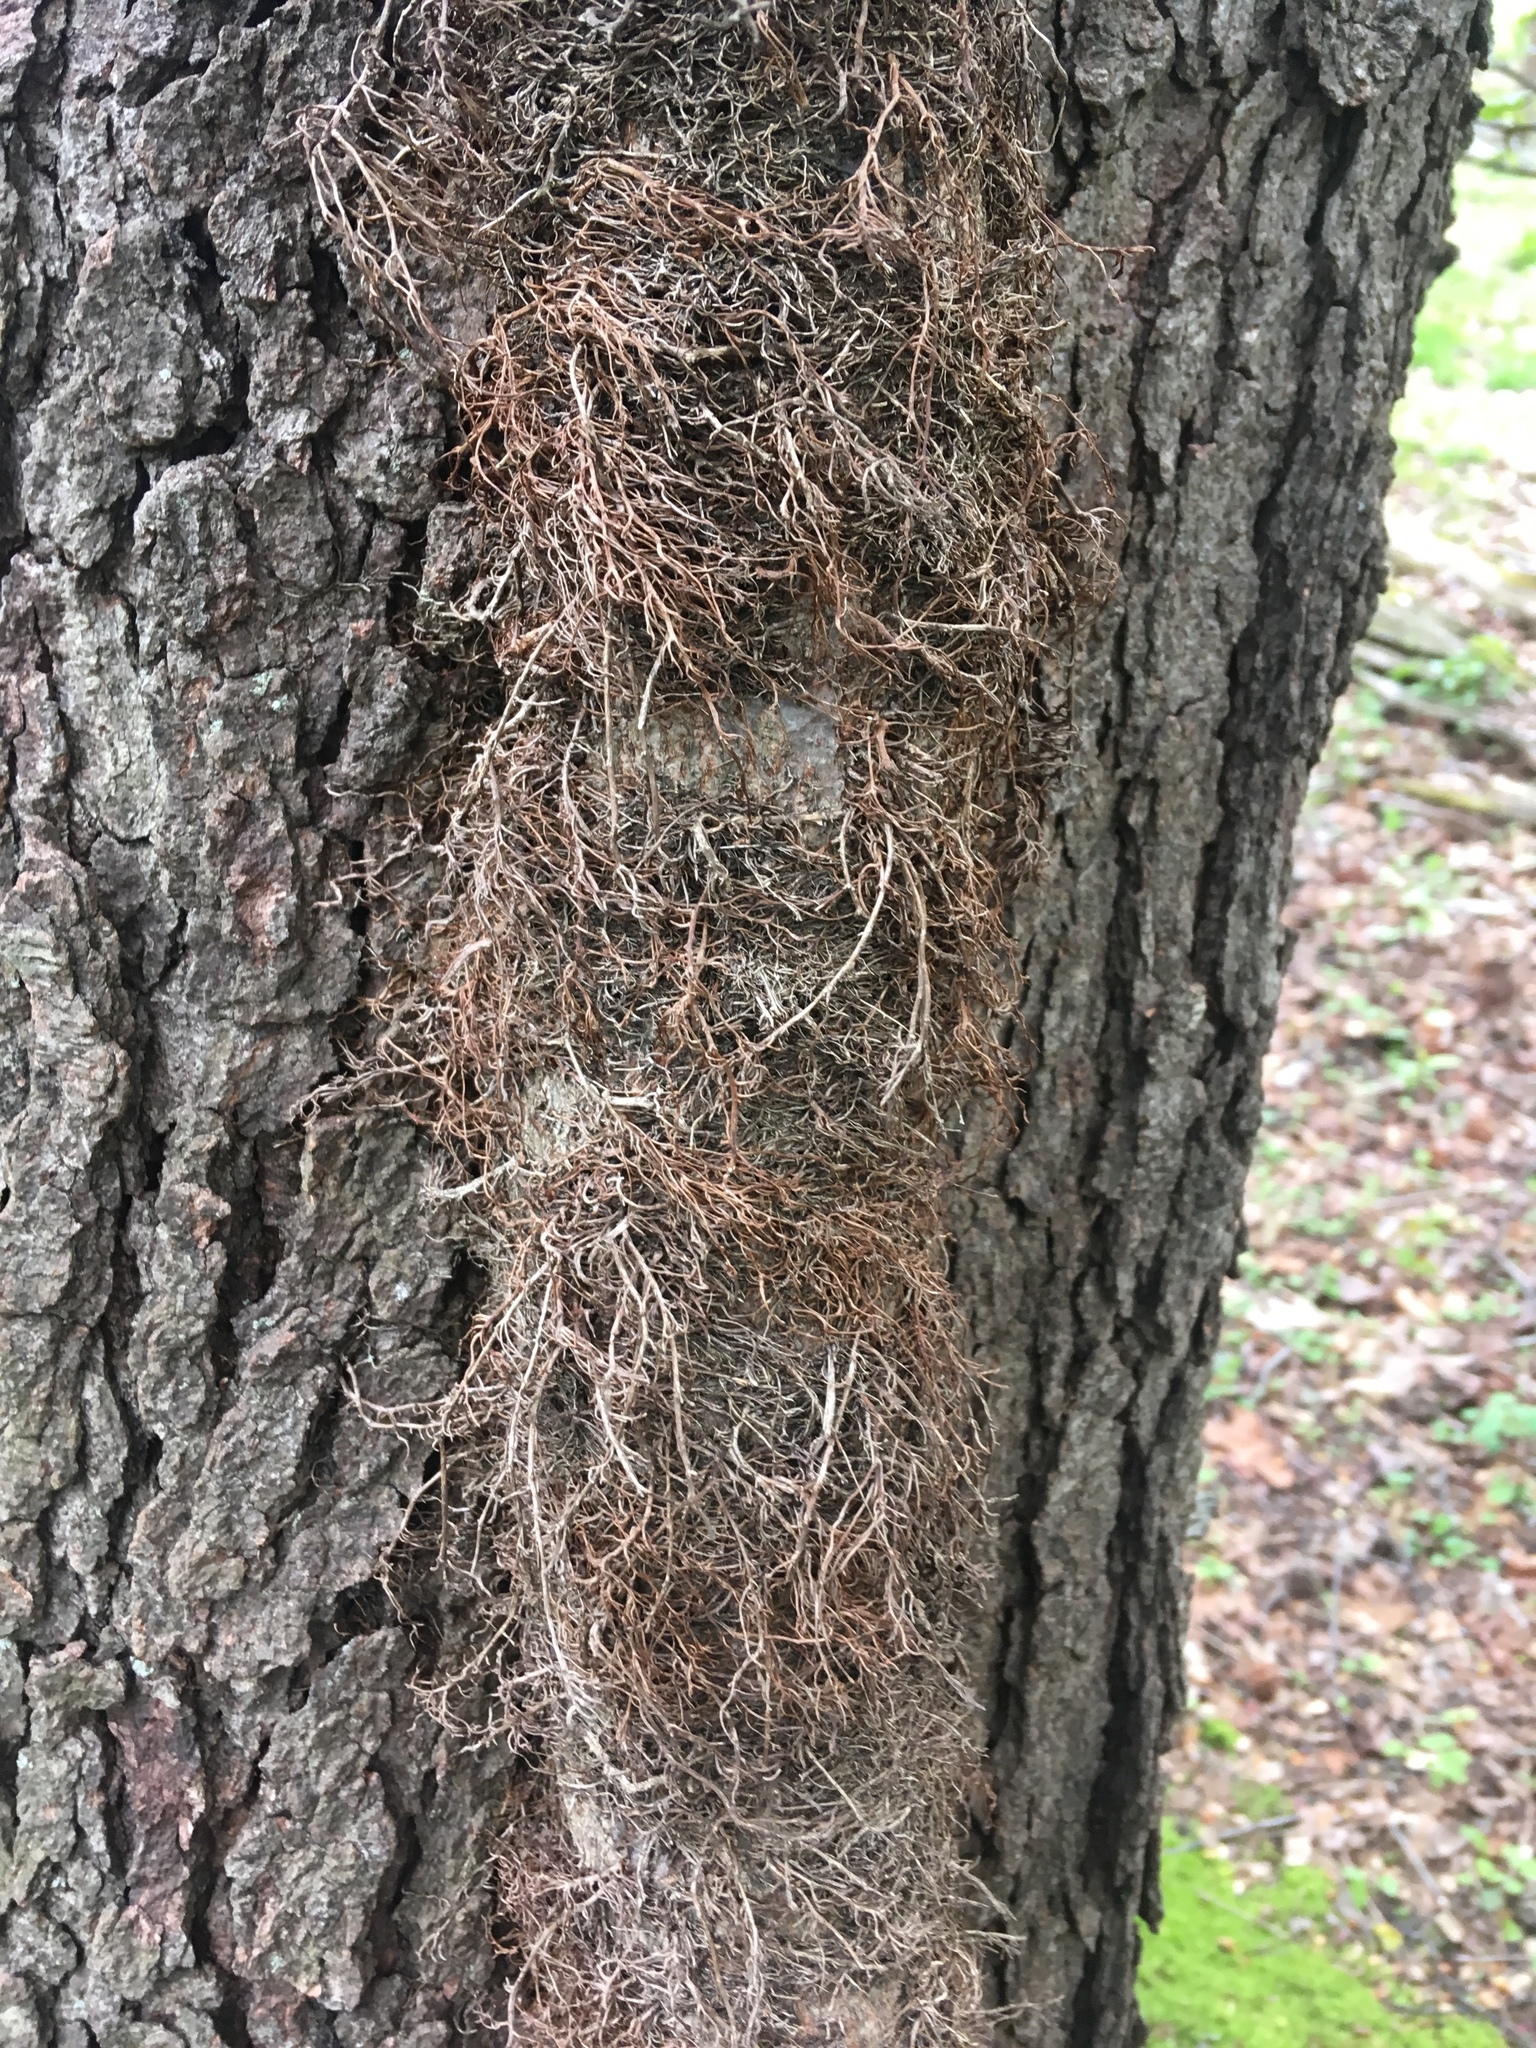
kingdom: Plantae
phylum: Tracheophyta
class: Magnoliopsida
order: Sapindales
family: Anacardiaceae
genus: Toxicodendron
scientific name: Toxicodendron radicans
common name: Poison ivy
